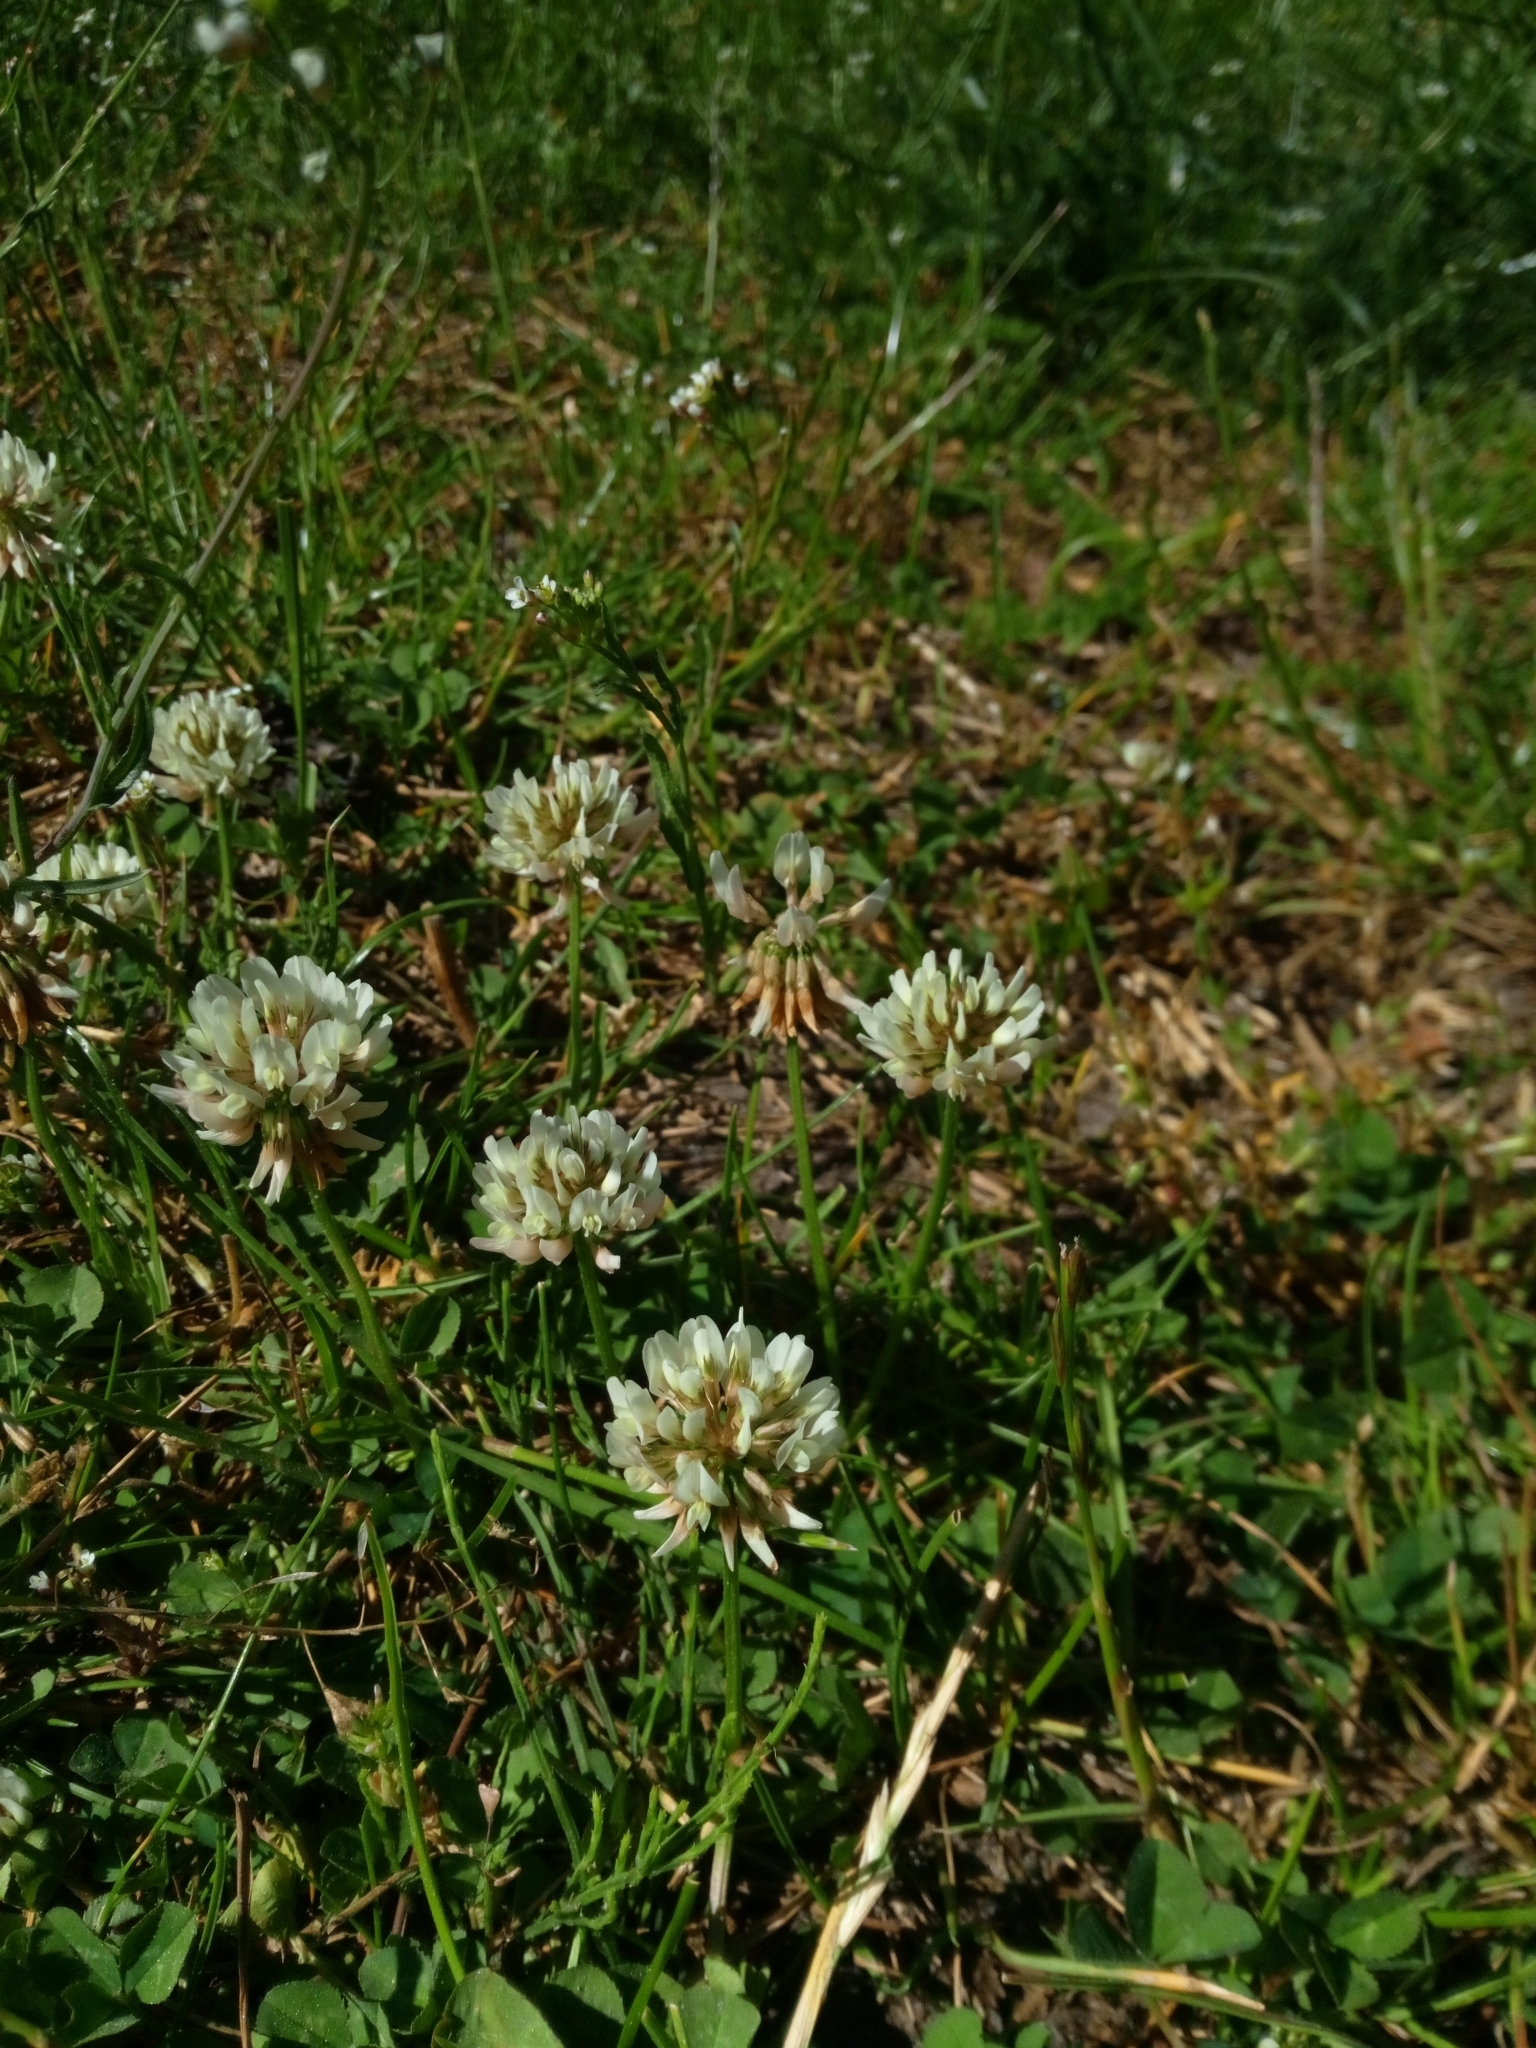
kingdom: Plantae
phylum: Tracheophyta
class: Magnoliopsida
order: Fabales
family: Fabaceae
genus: Trifolium
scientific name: Trifolium repens
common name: White clover
